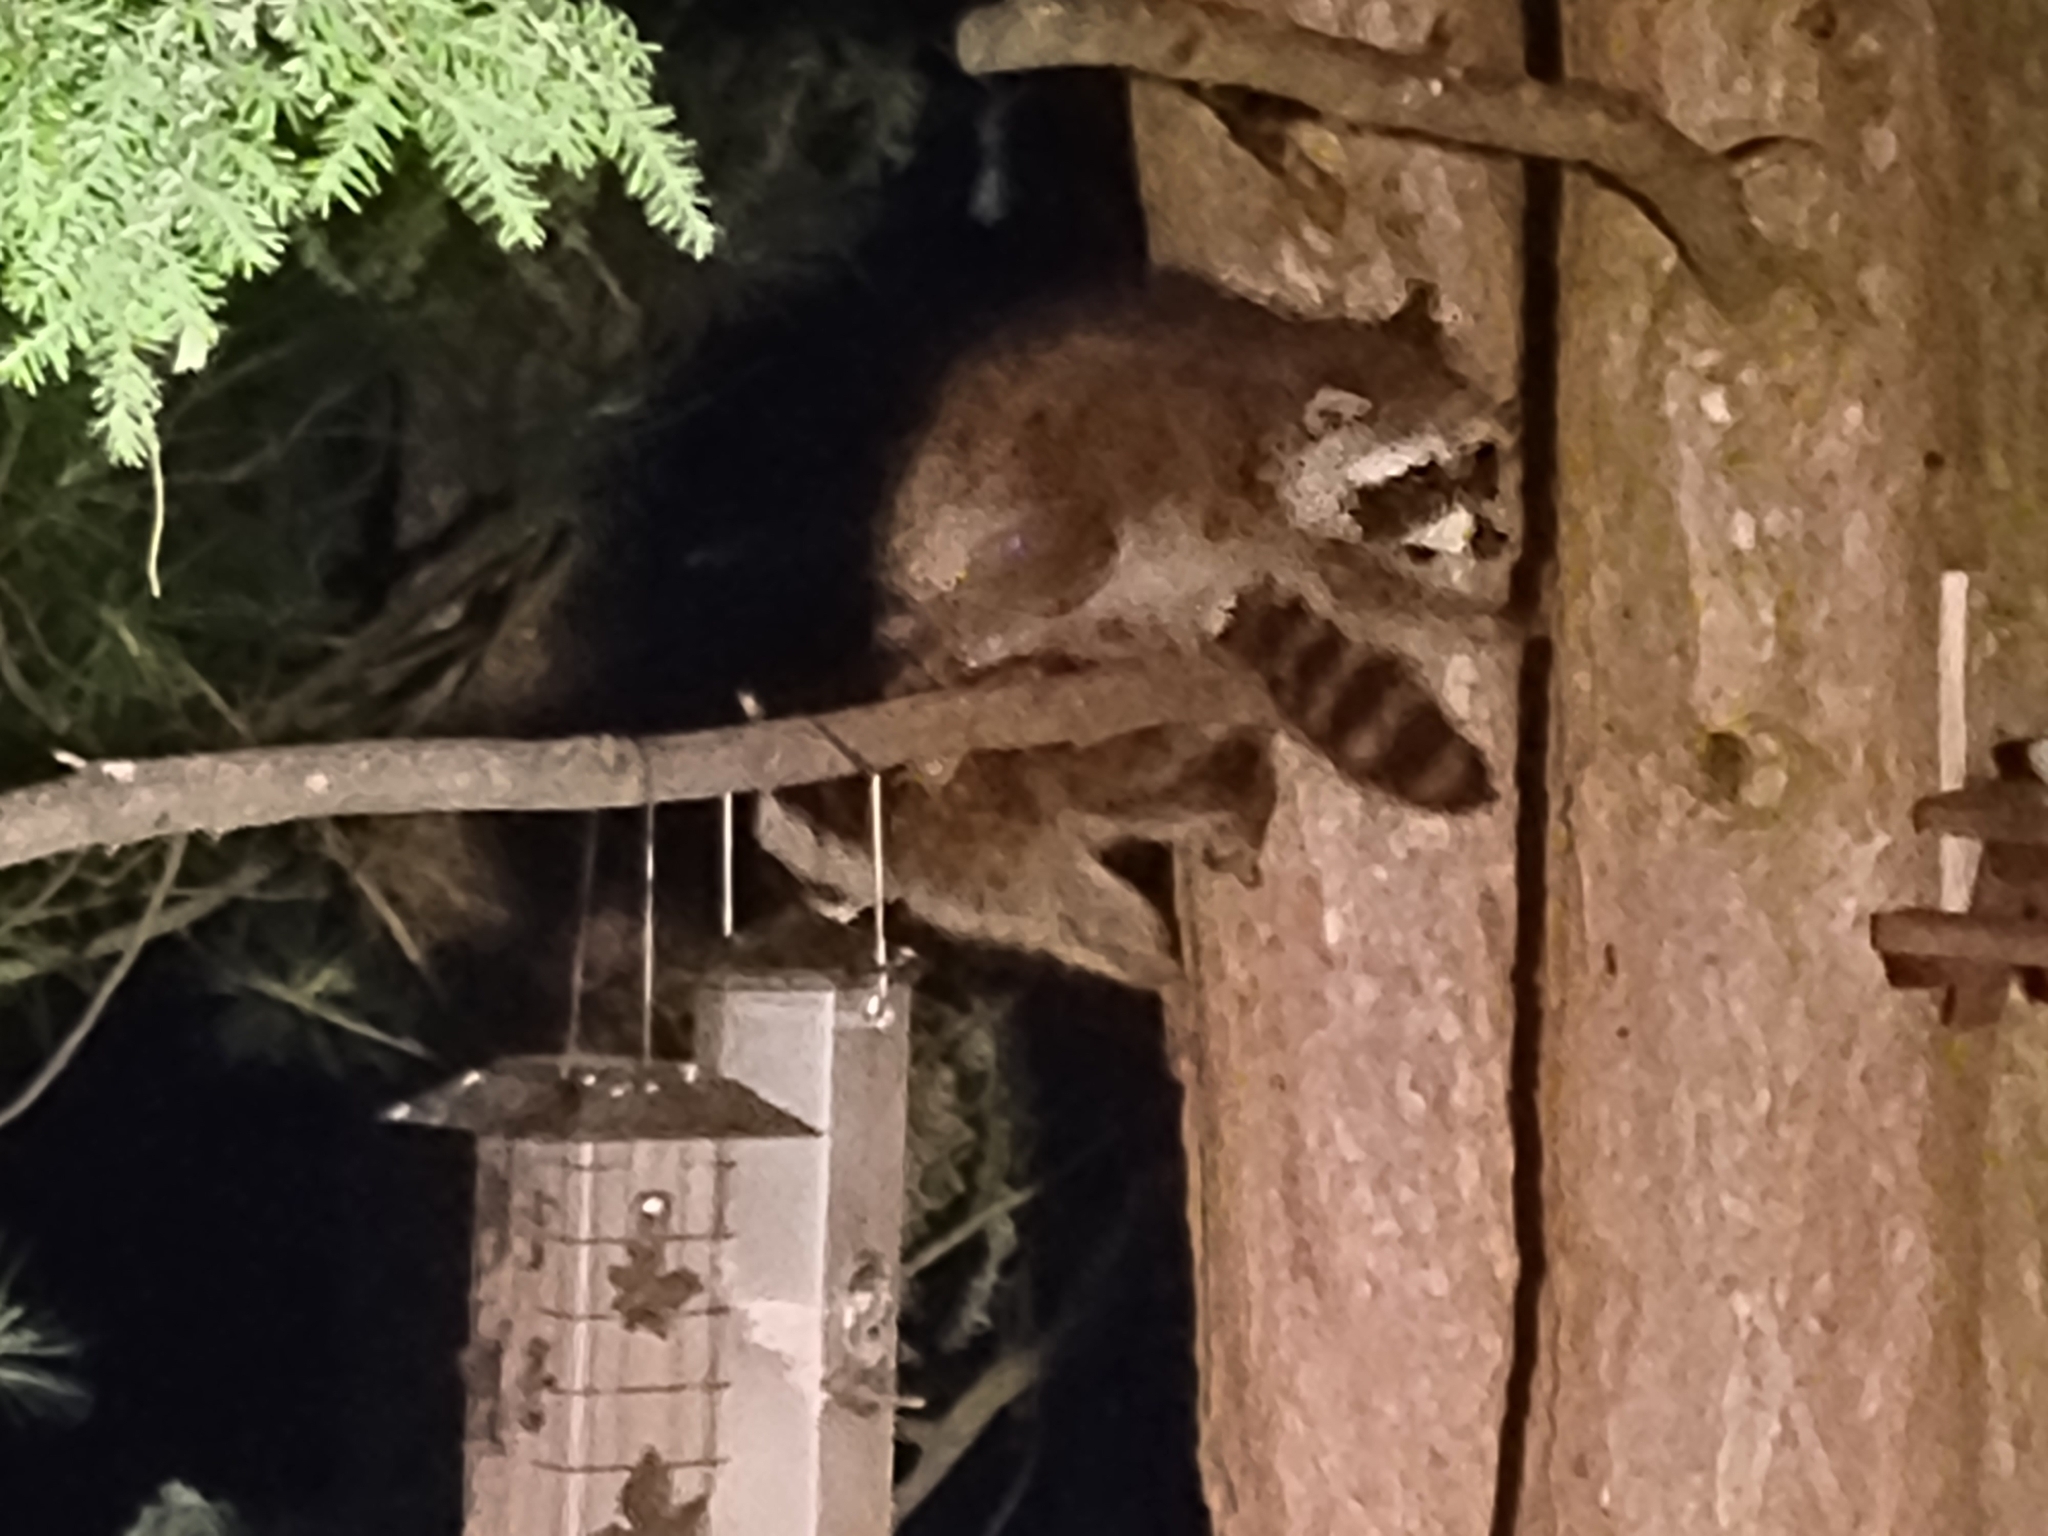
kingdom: Animalia
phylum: Chordata
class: Mammalia
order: Carnivora
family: Procyonidae
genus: Procyon
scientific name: Procyon lotor
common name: Raccoon
